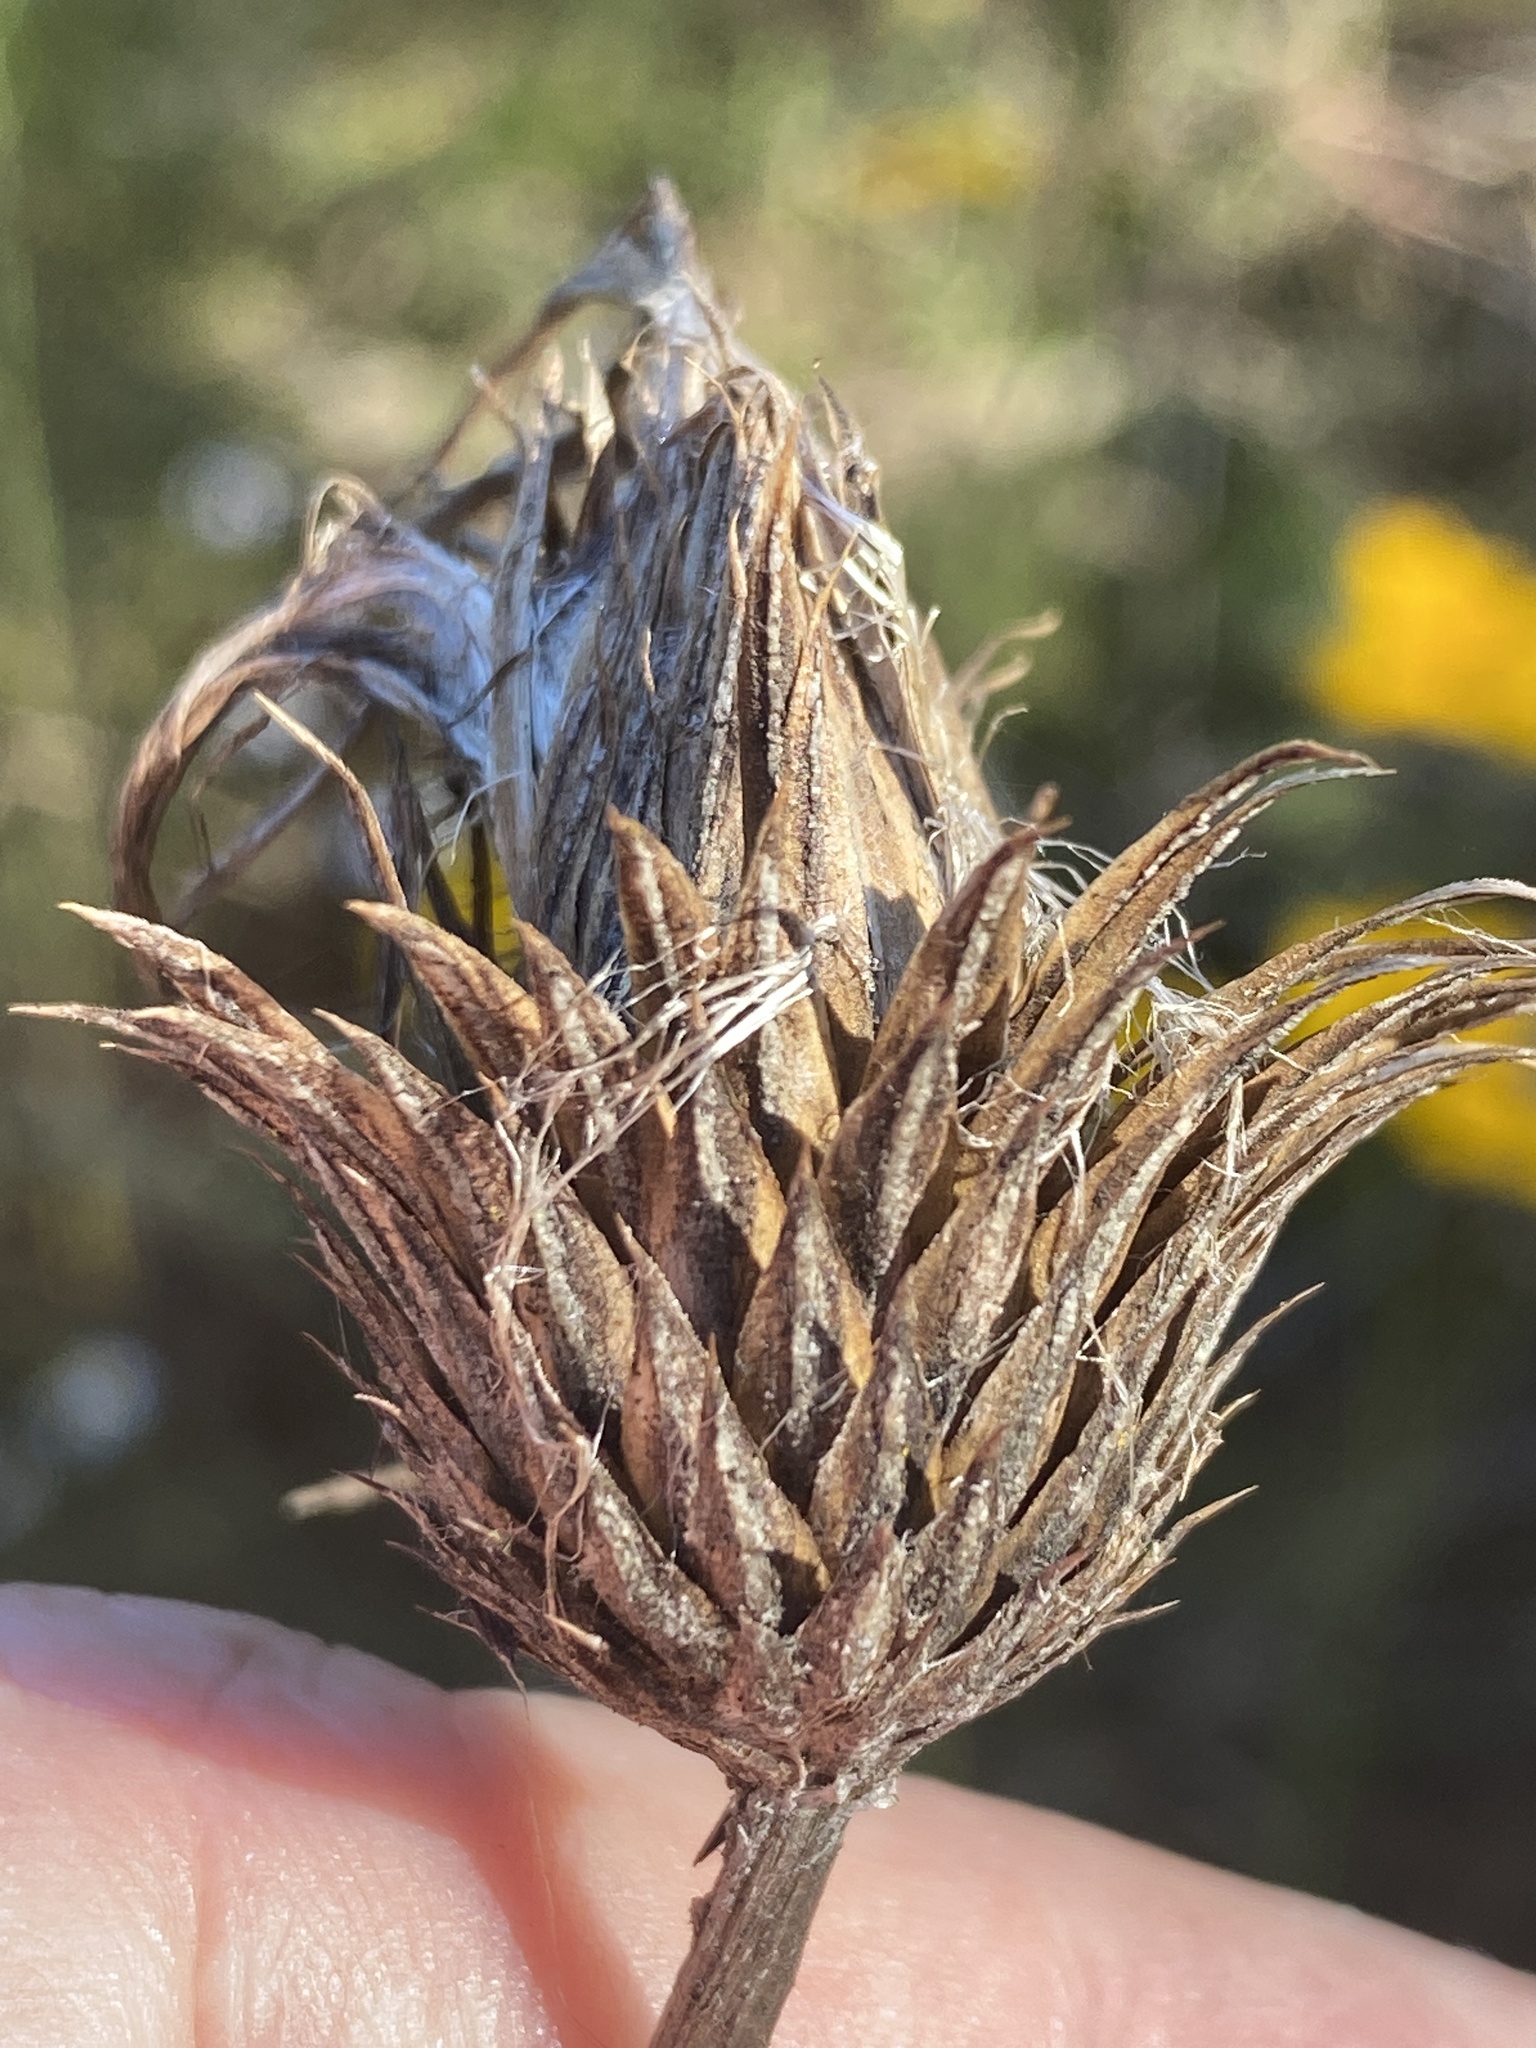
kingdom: Plantae
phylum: Tracheophyta
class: Magnoliopsida
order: Asterales
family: Asteraceae
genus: Cirsium
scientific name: Cirsium lecontei
